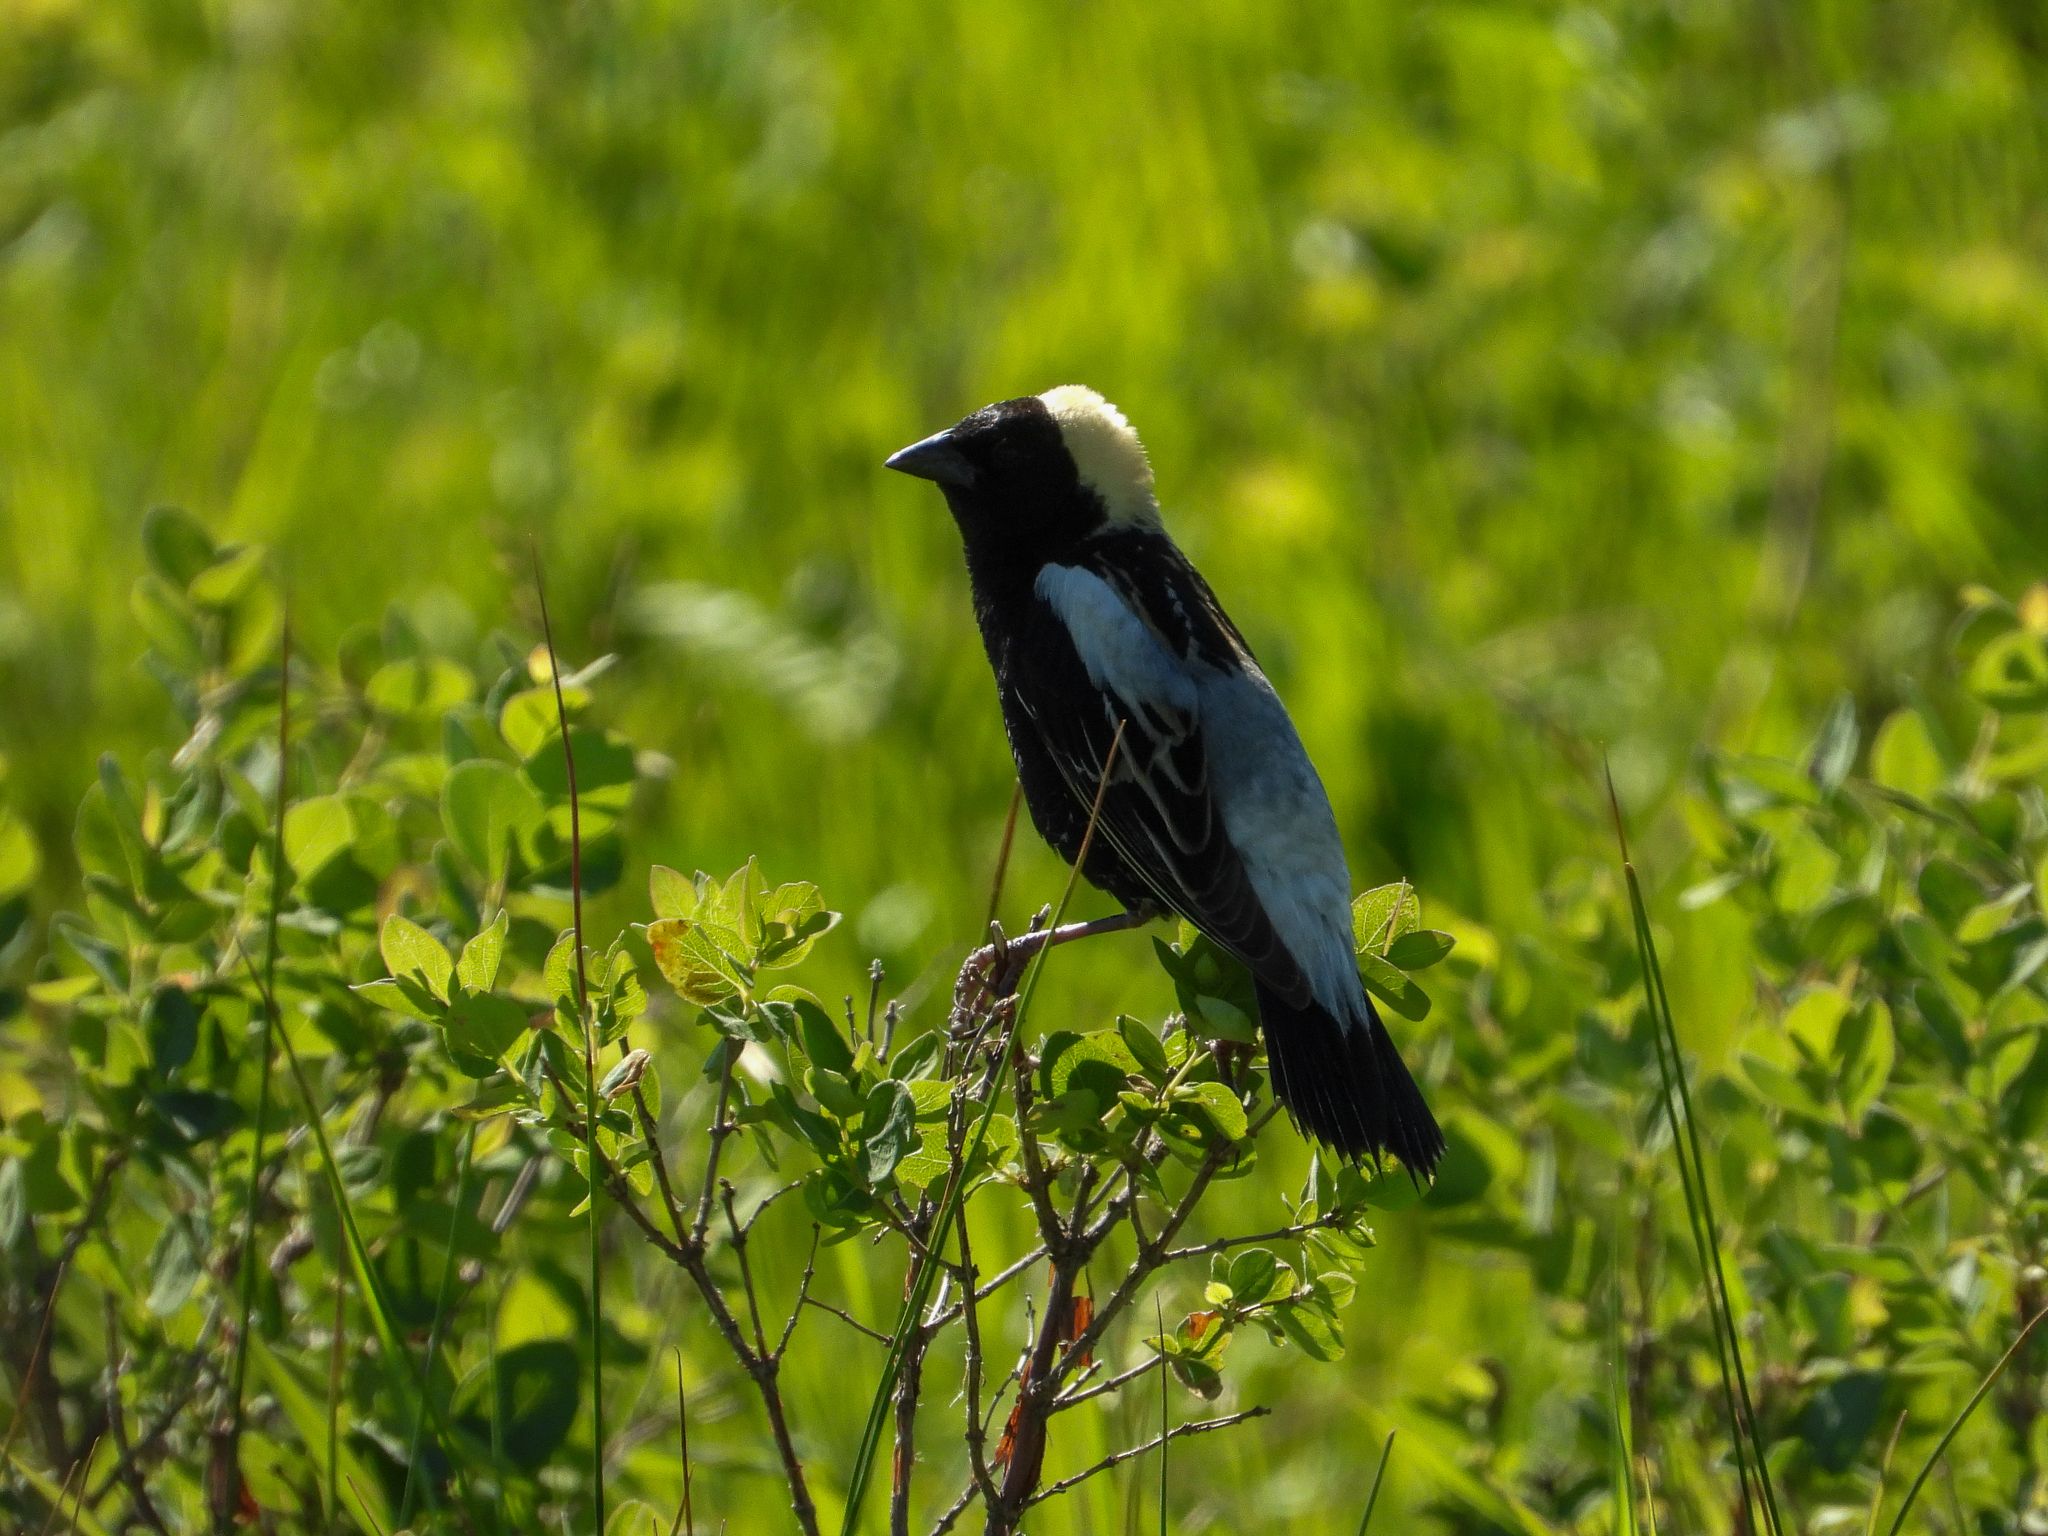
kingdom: Animalia
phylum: Chordata
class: Aves
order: Passeriformes
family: Icteridae
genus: Dolichonyx
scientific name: Dolichonyx oryzivorus
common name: Bobolink
